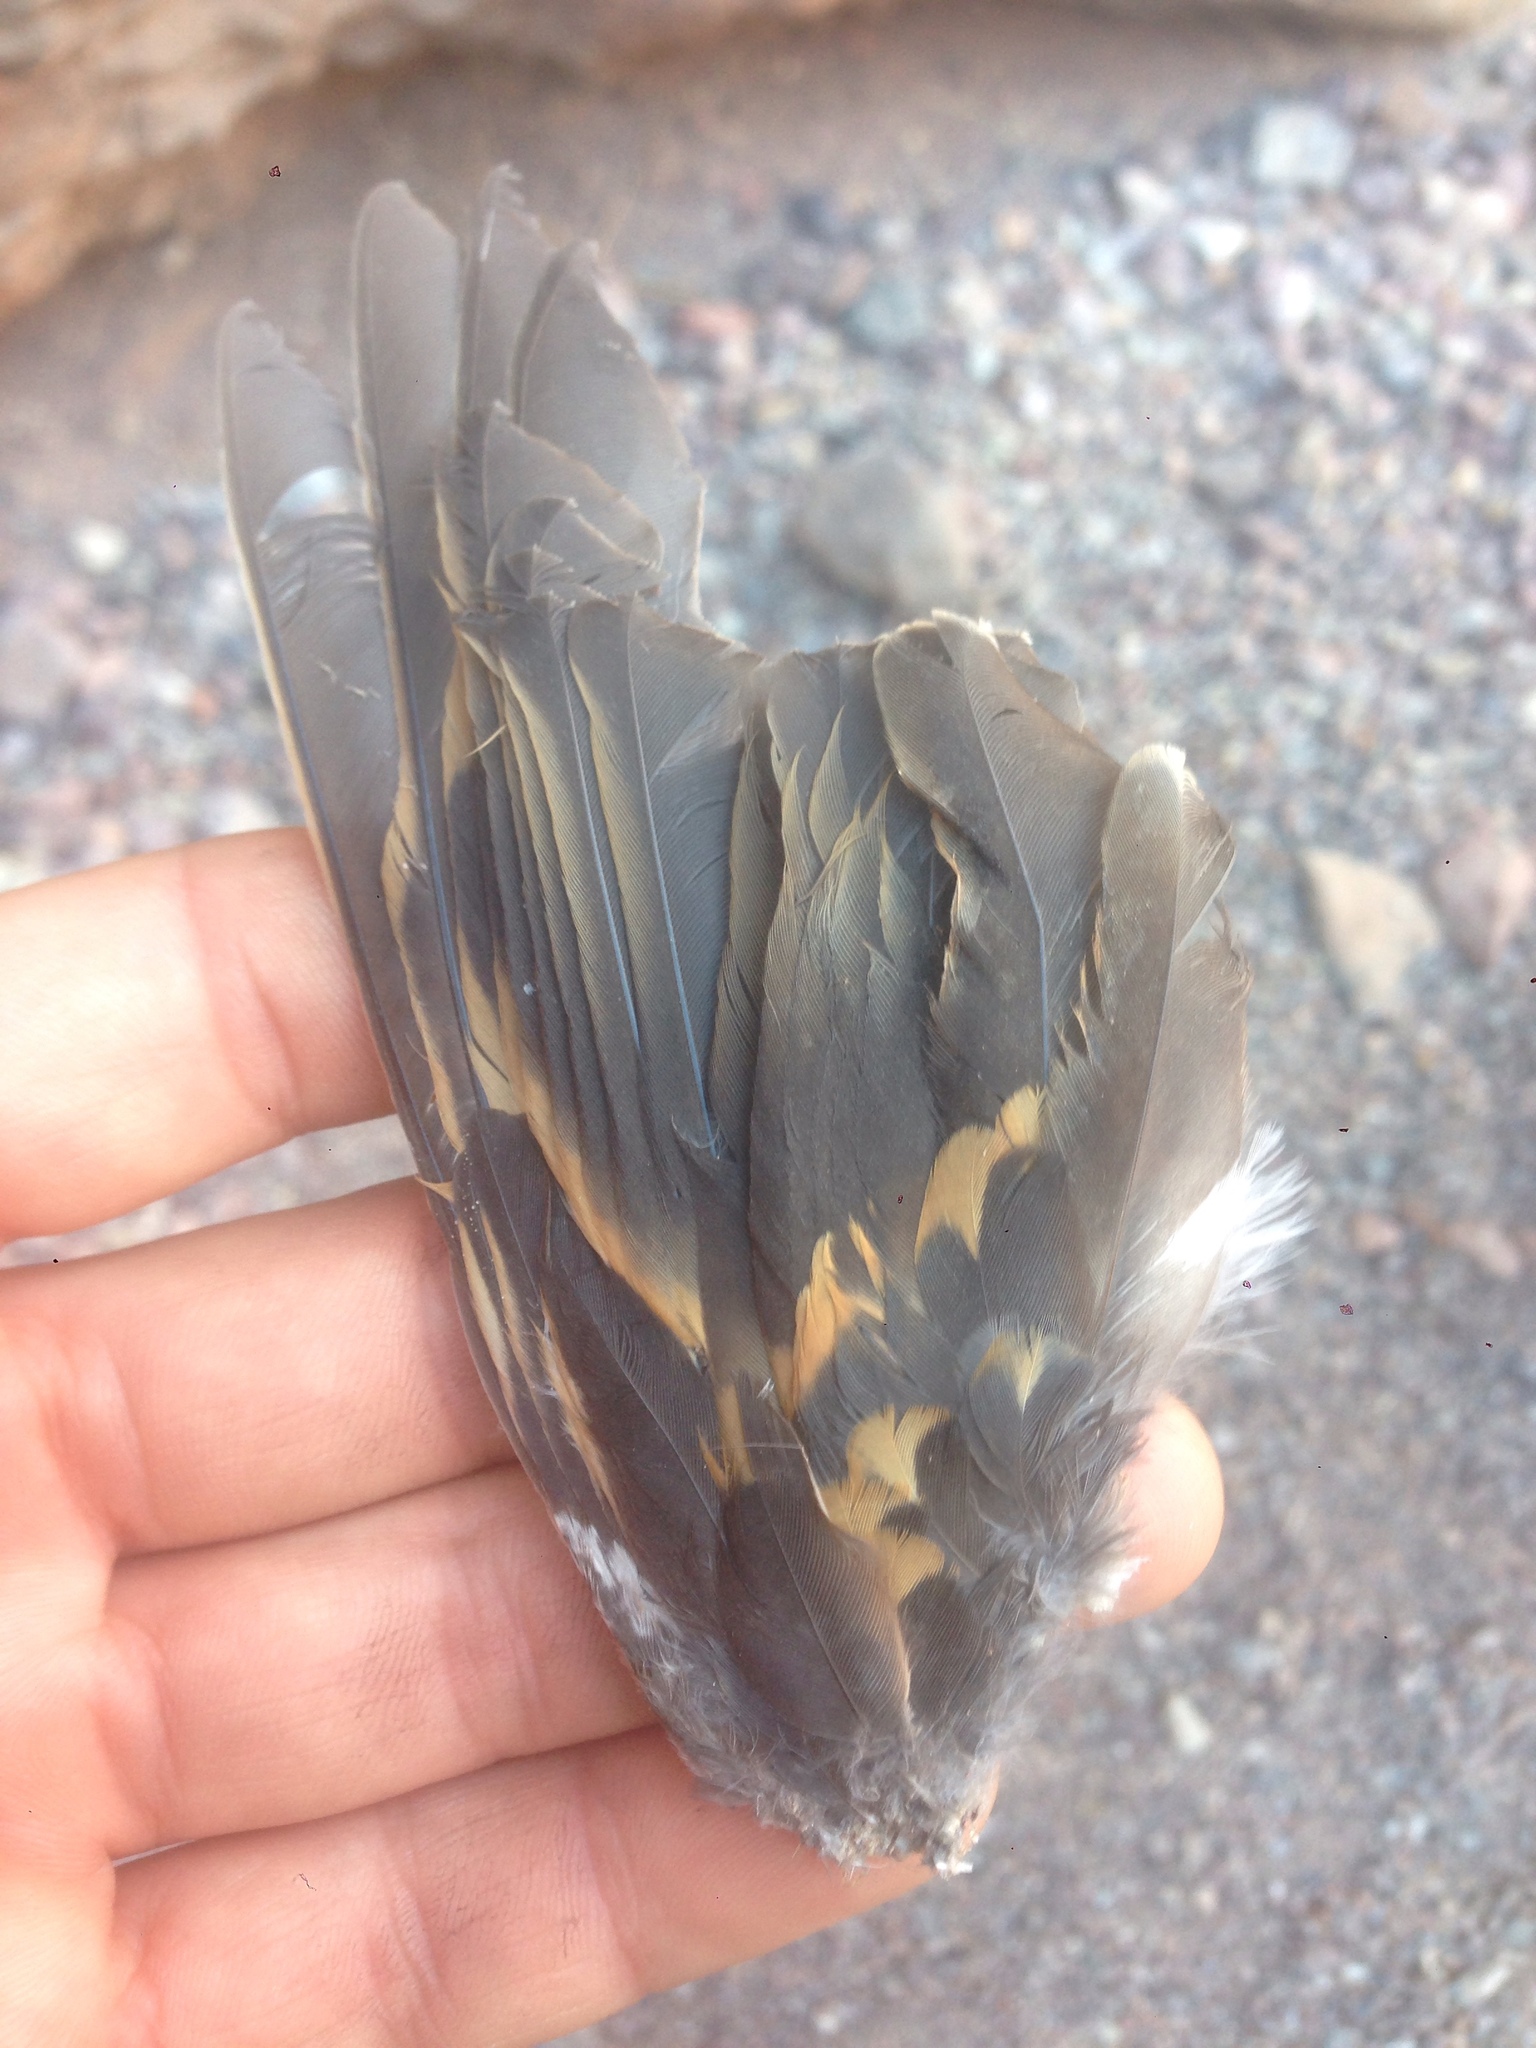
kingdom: Animalia
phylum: Chordata
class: Aves
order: Passeriformes
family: Turdidae
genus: Ixoreus
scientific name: Ixoreus naevius
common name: Varied thrush
